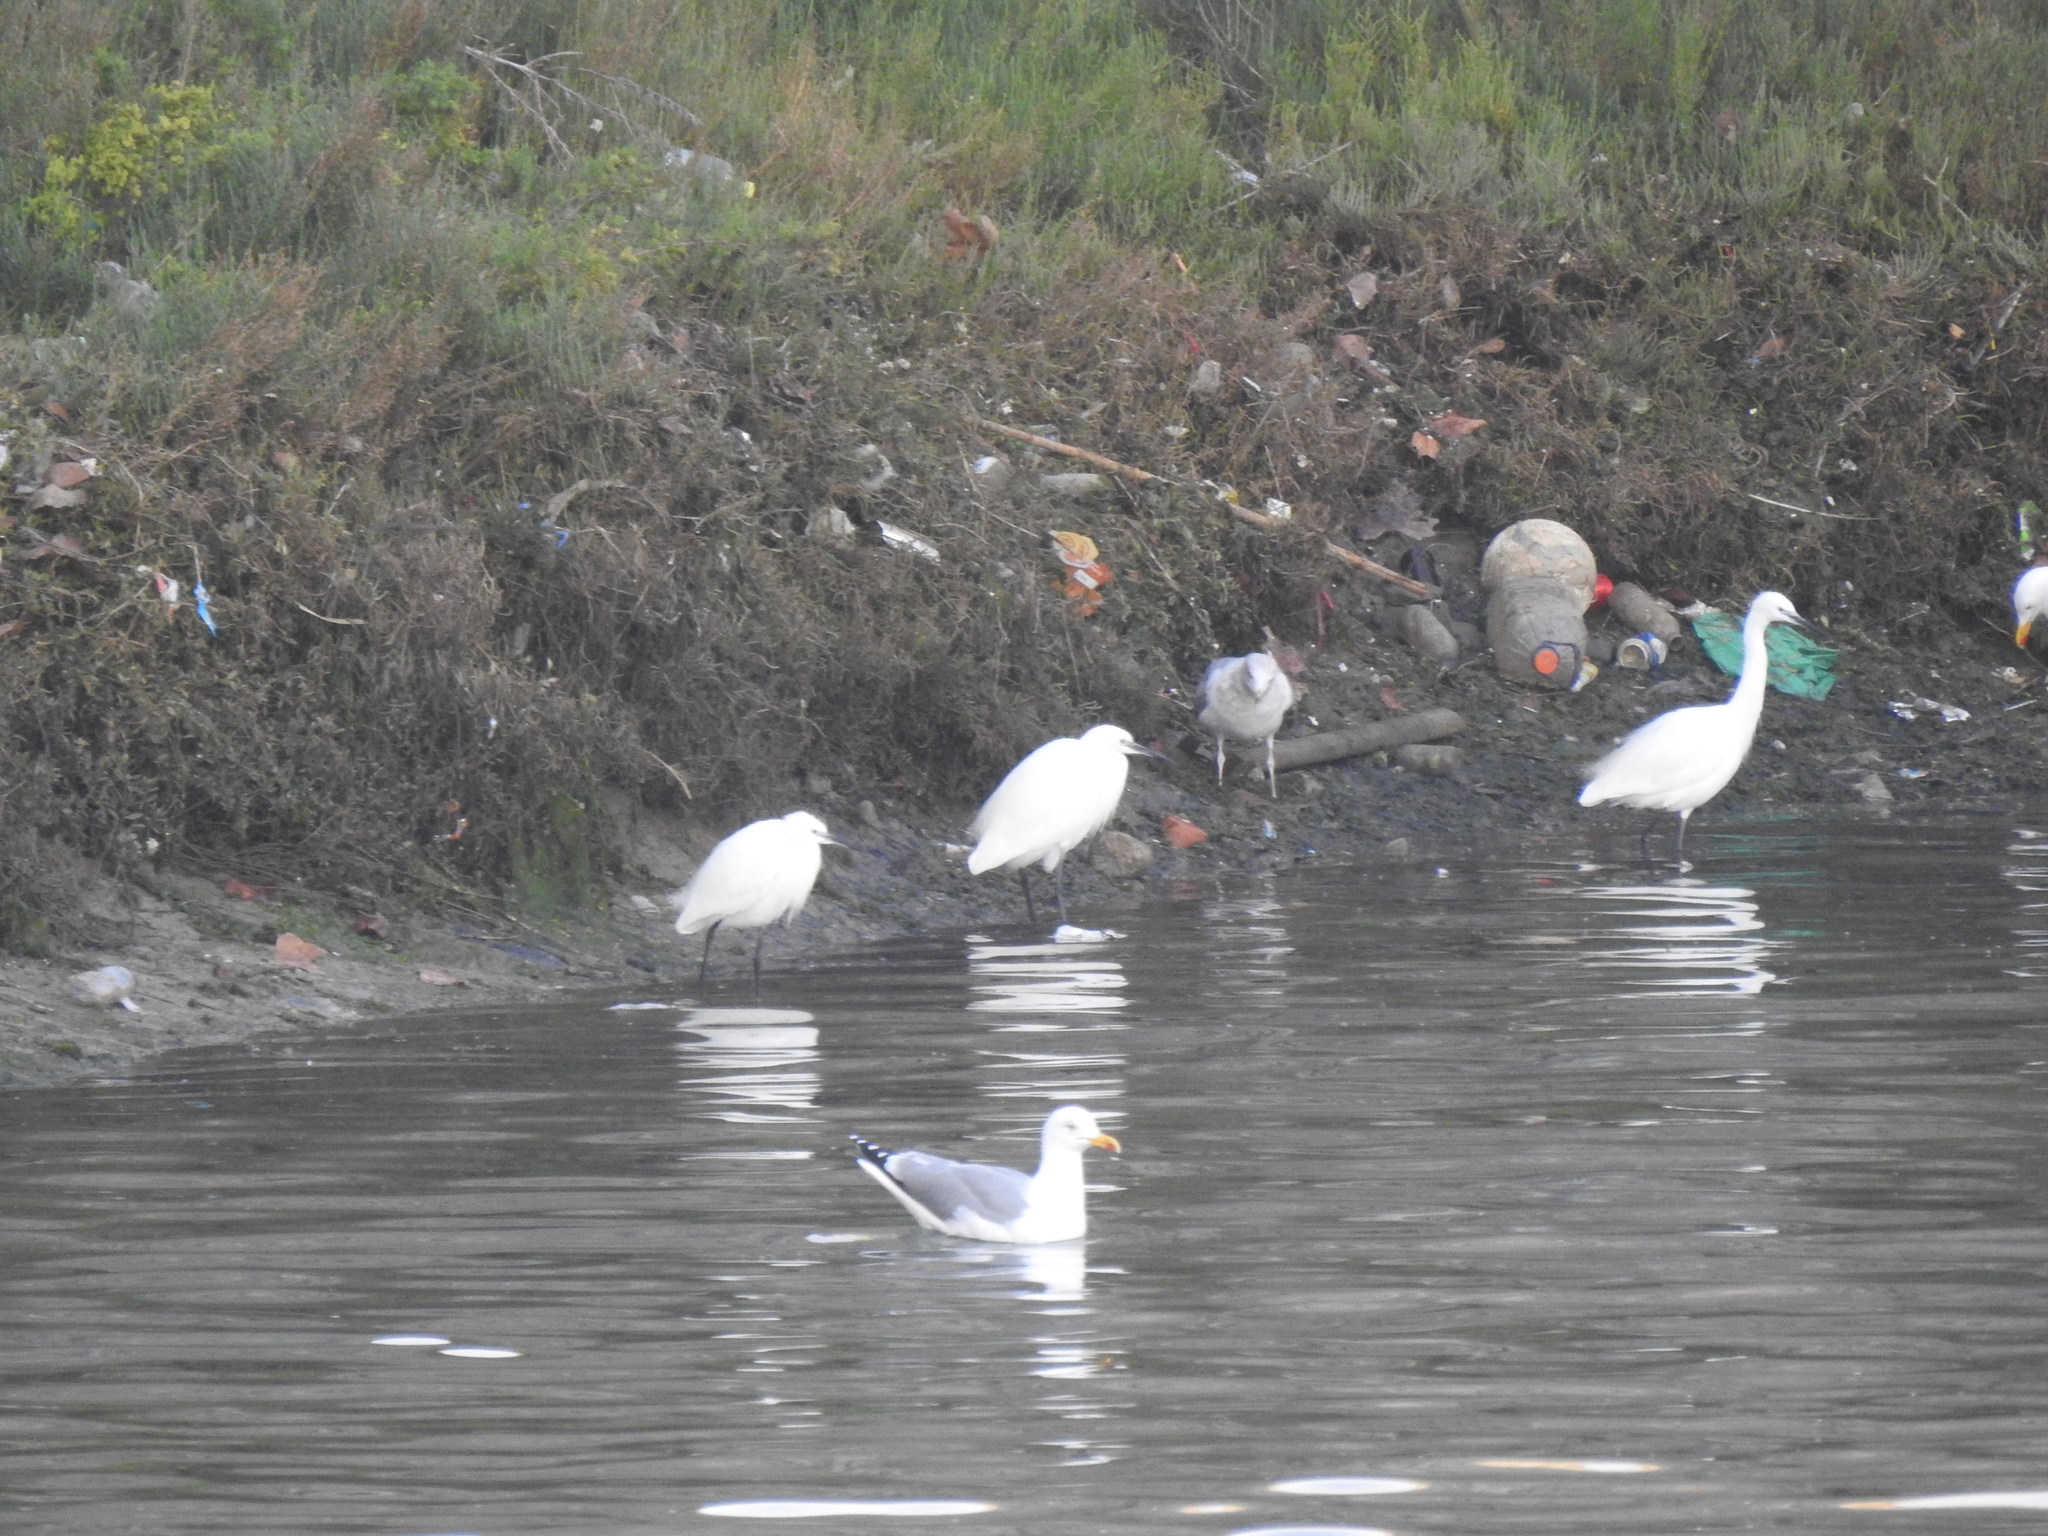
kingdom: Animalia
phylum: Chordata
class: Aves
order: Pelecaniformes
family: Ardeidae
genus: Egretta
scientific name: Egretta garzetta
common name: Little egret
